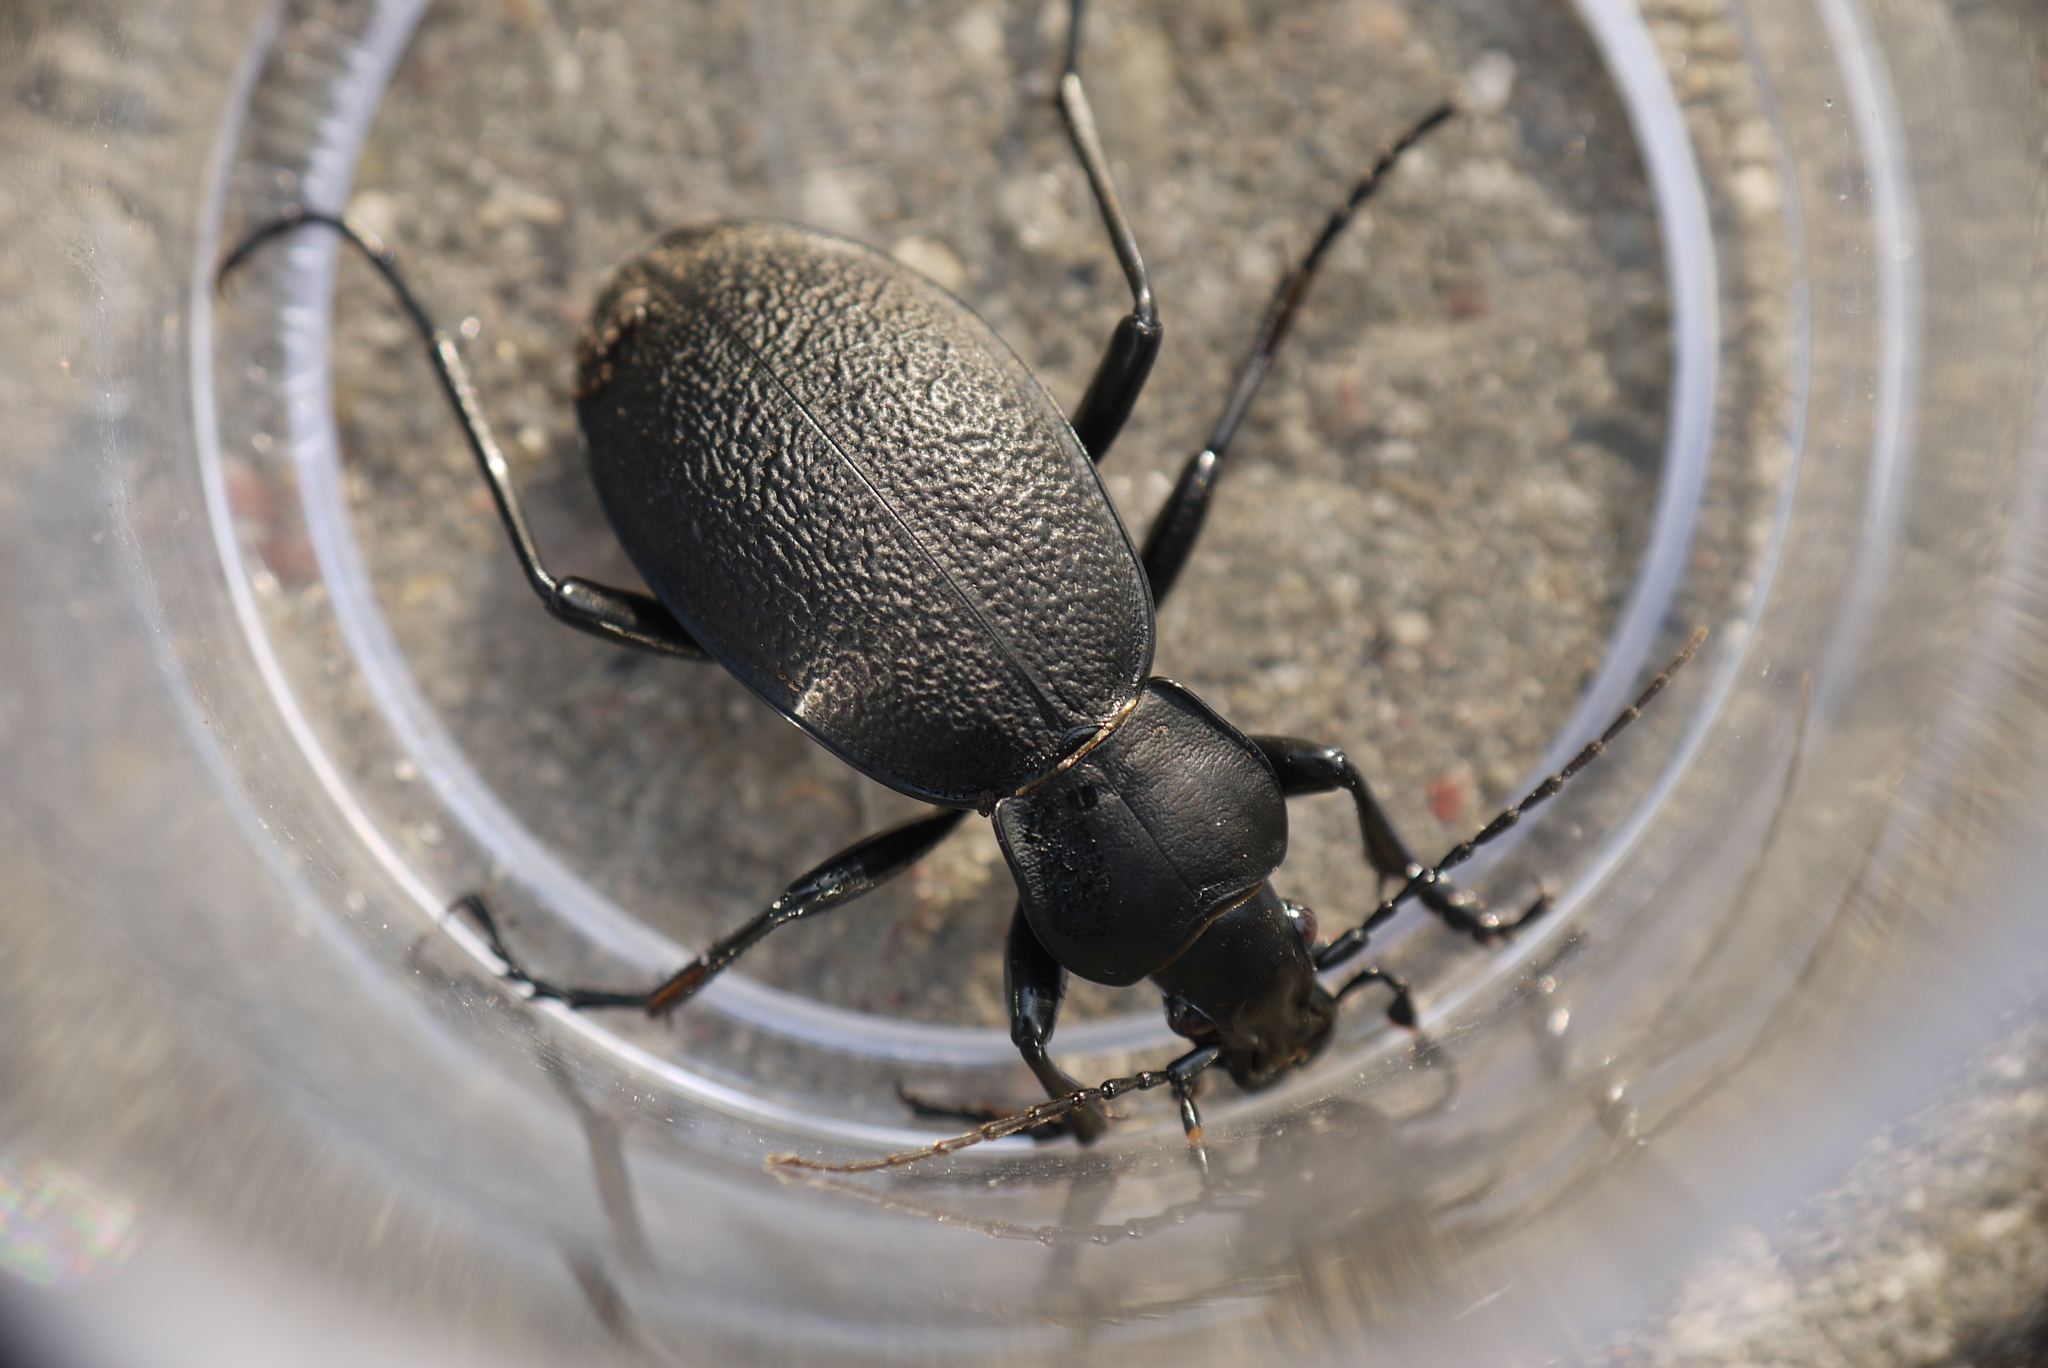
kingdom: Animalia
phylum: Arthropoda
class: Insecta
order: Coleoptera
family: Carabidae
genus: Carabus
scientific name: Carabus coriaceus
